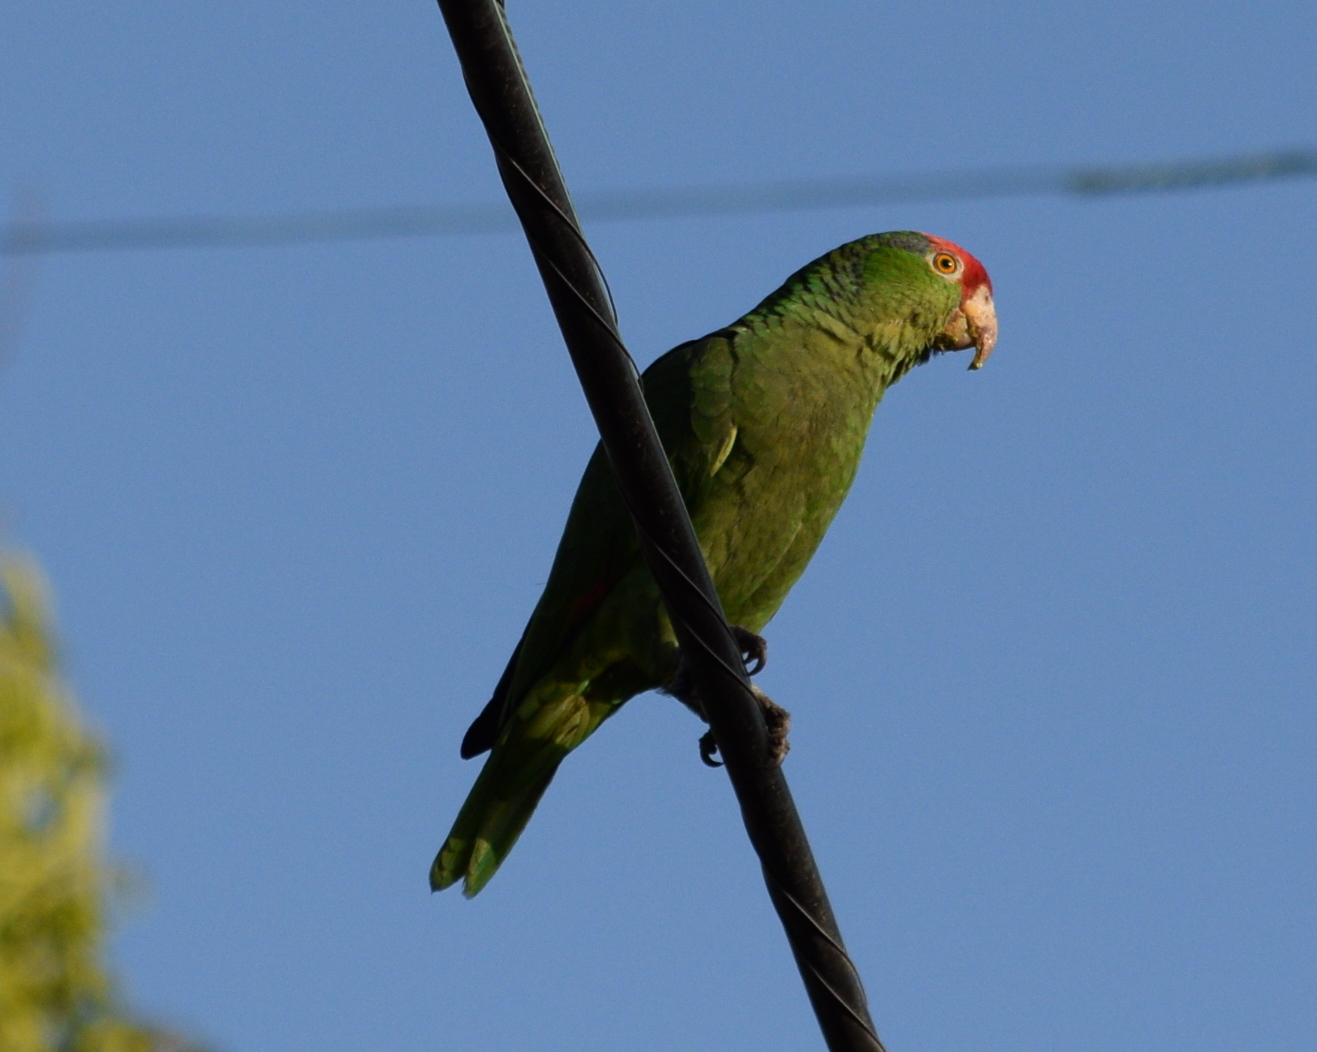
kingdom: Animalia
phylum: Chordata
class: Aves
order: Psittaciformes
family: Psittacidae
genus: Amazona
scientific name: Amazona viridigenalis
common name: Red-crowned amazon
